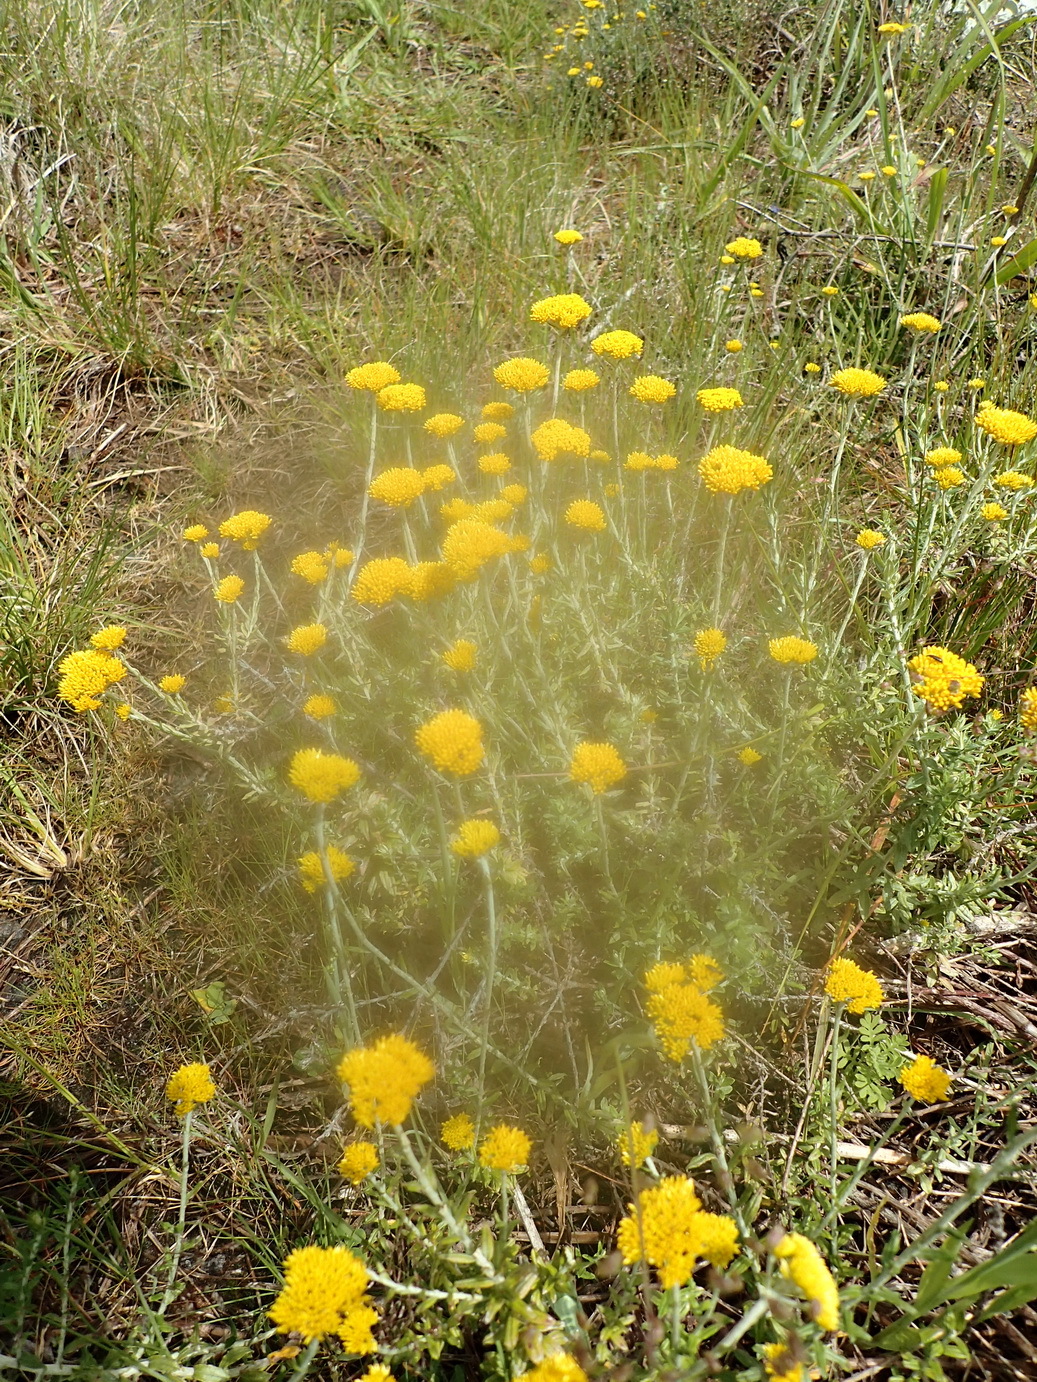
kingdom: Plantae
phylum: Tracheophyta
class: Magnoliopsida
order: Asterales
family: Asteraceae
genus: Helichrysum
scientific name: Helichrysum cymosum
